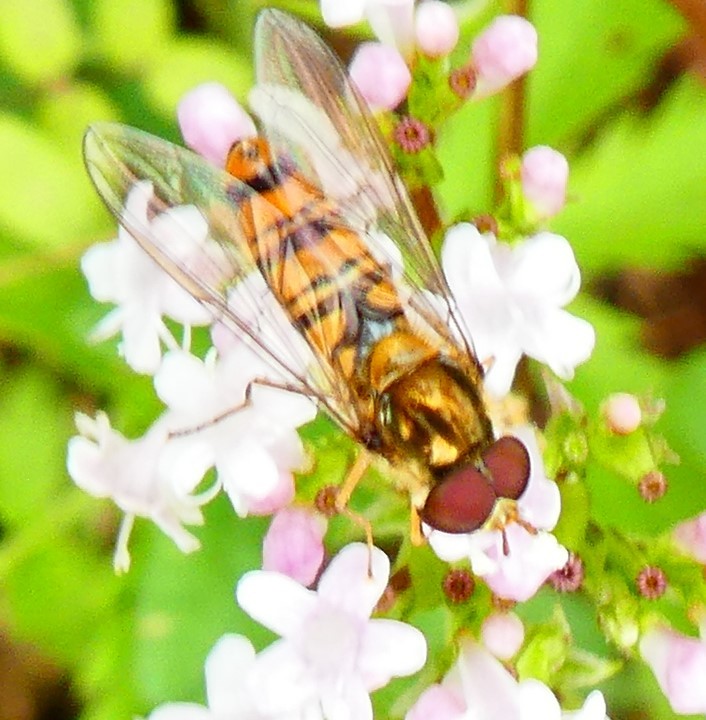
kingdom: Animalia
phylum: Arthropoda
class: Insecta
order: Diptera
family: Syrphidae
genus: Episyrphus
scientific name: Episyrphus balteatus
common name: Marmalade hoverfly
